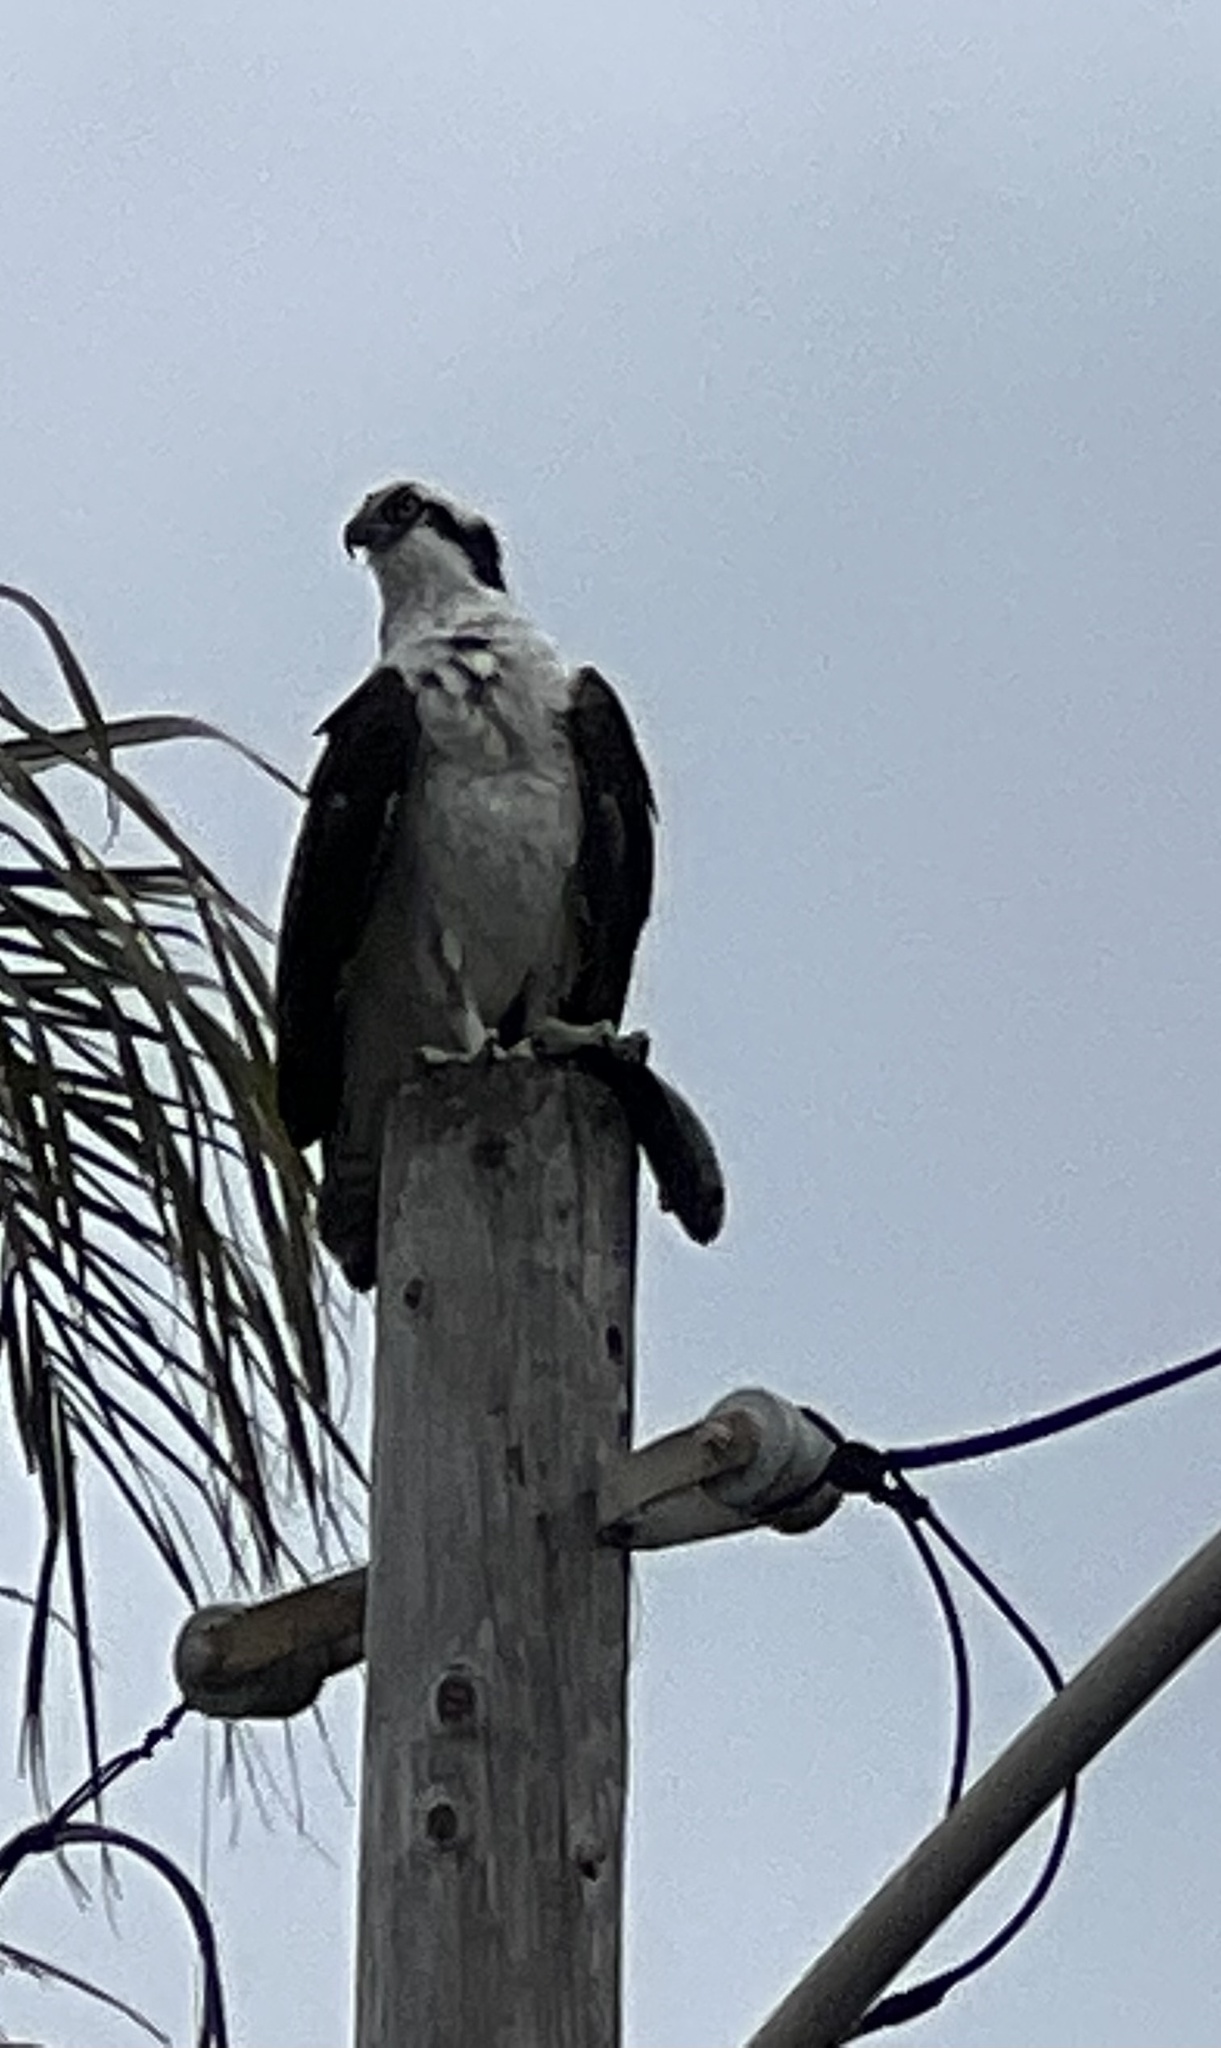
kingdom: Animalia
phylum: Chordata
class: Aves
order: Accipitriformes
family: Pandionidae
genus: Pandion
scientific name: Pandion haliaetus
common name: Osprey
